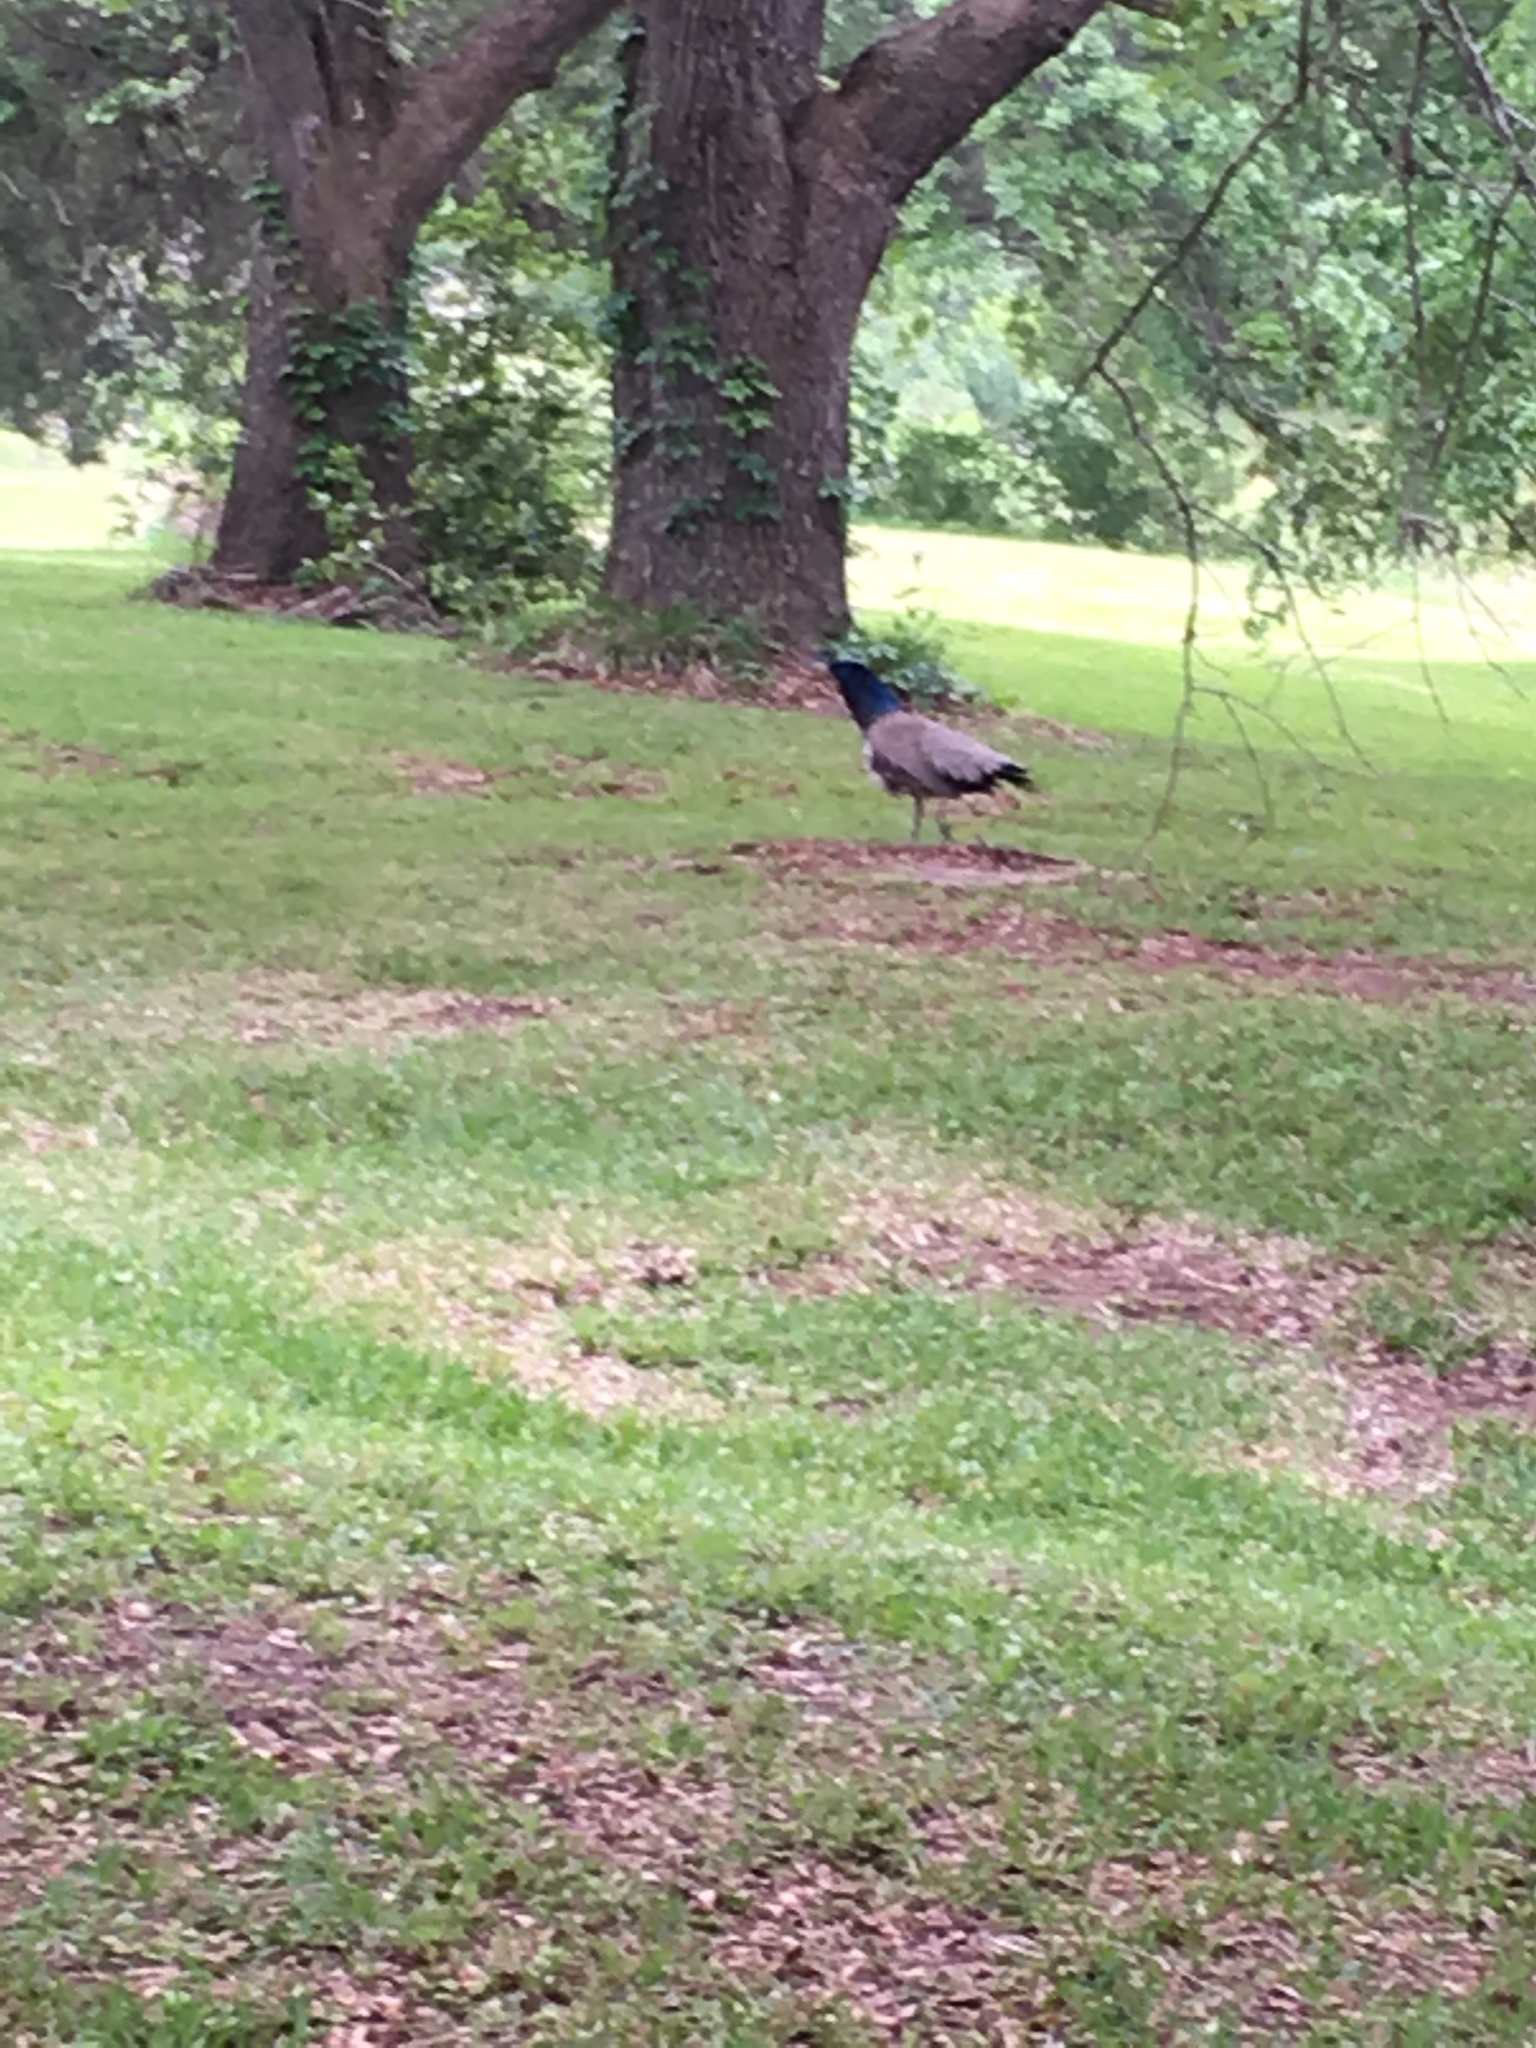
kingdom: Animalia
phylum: Chordata
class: Aves
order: Galliformes
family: Phasianidae
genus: Pavo
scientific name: Pavo cristatus
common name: Indian peafowl
